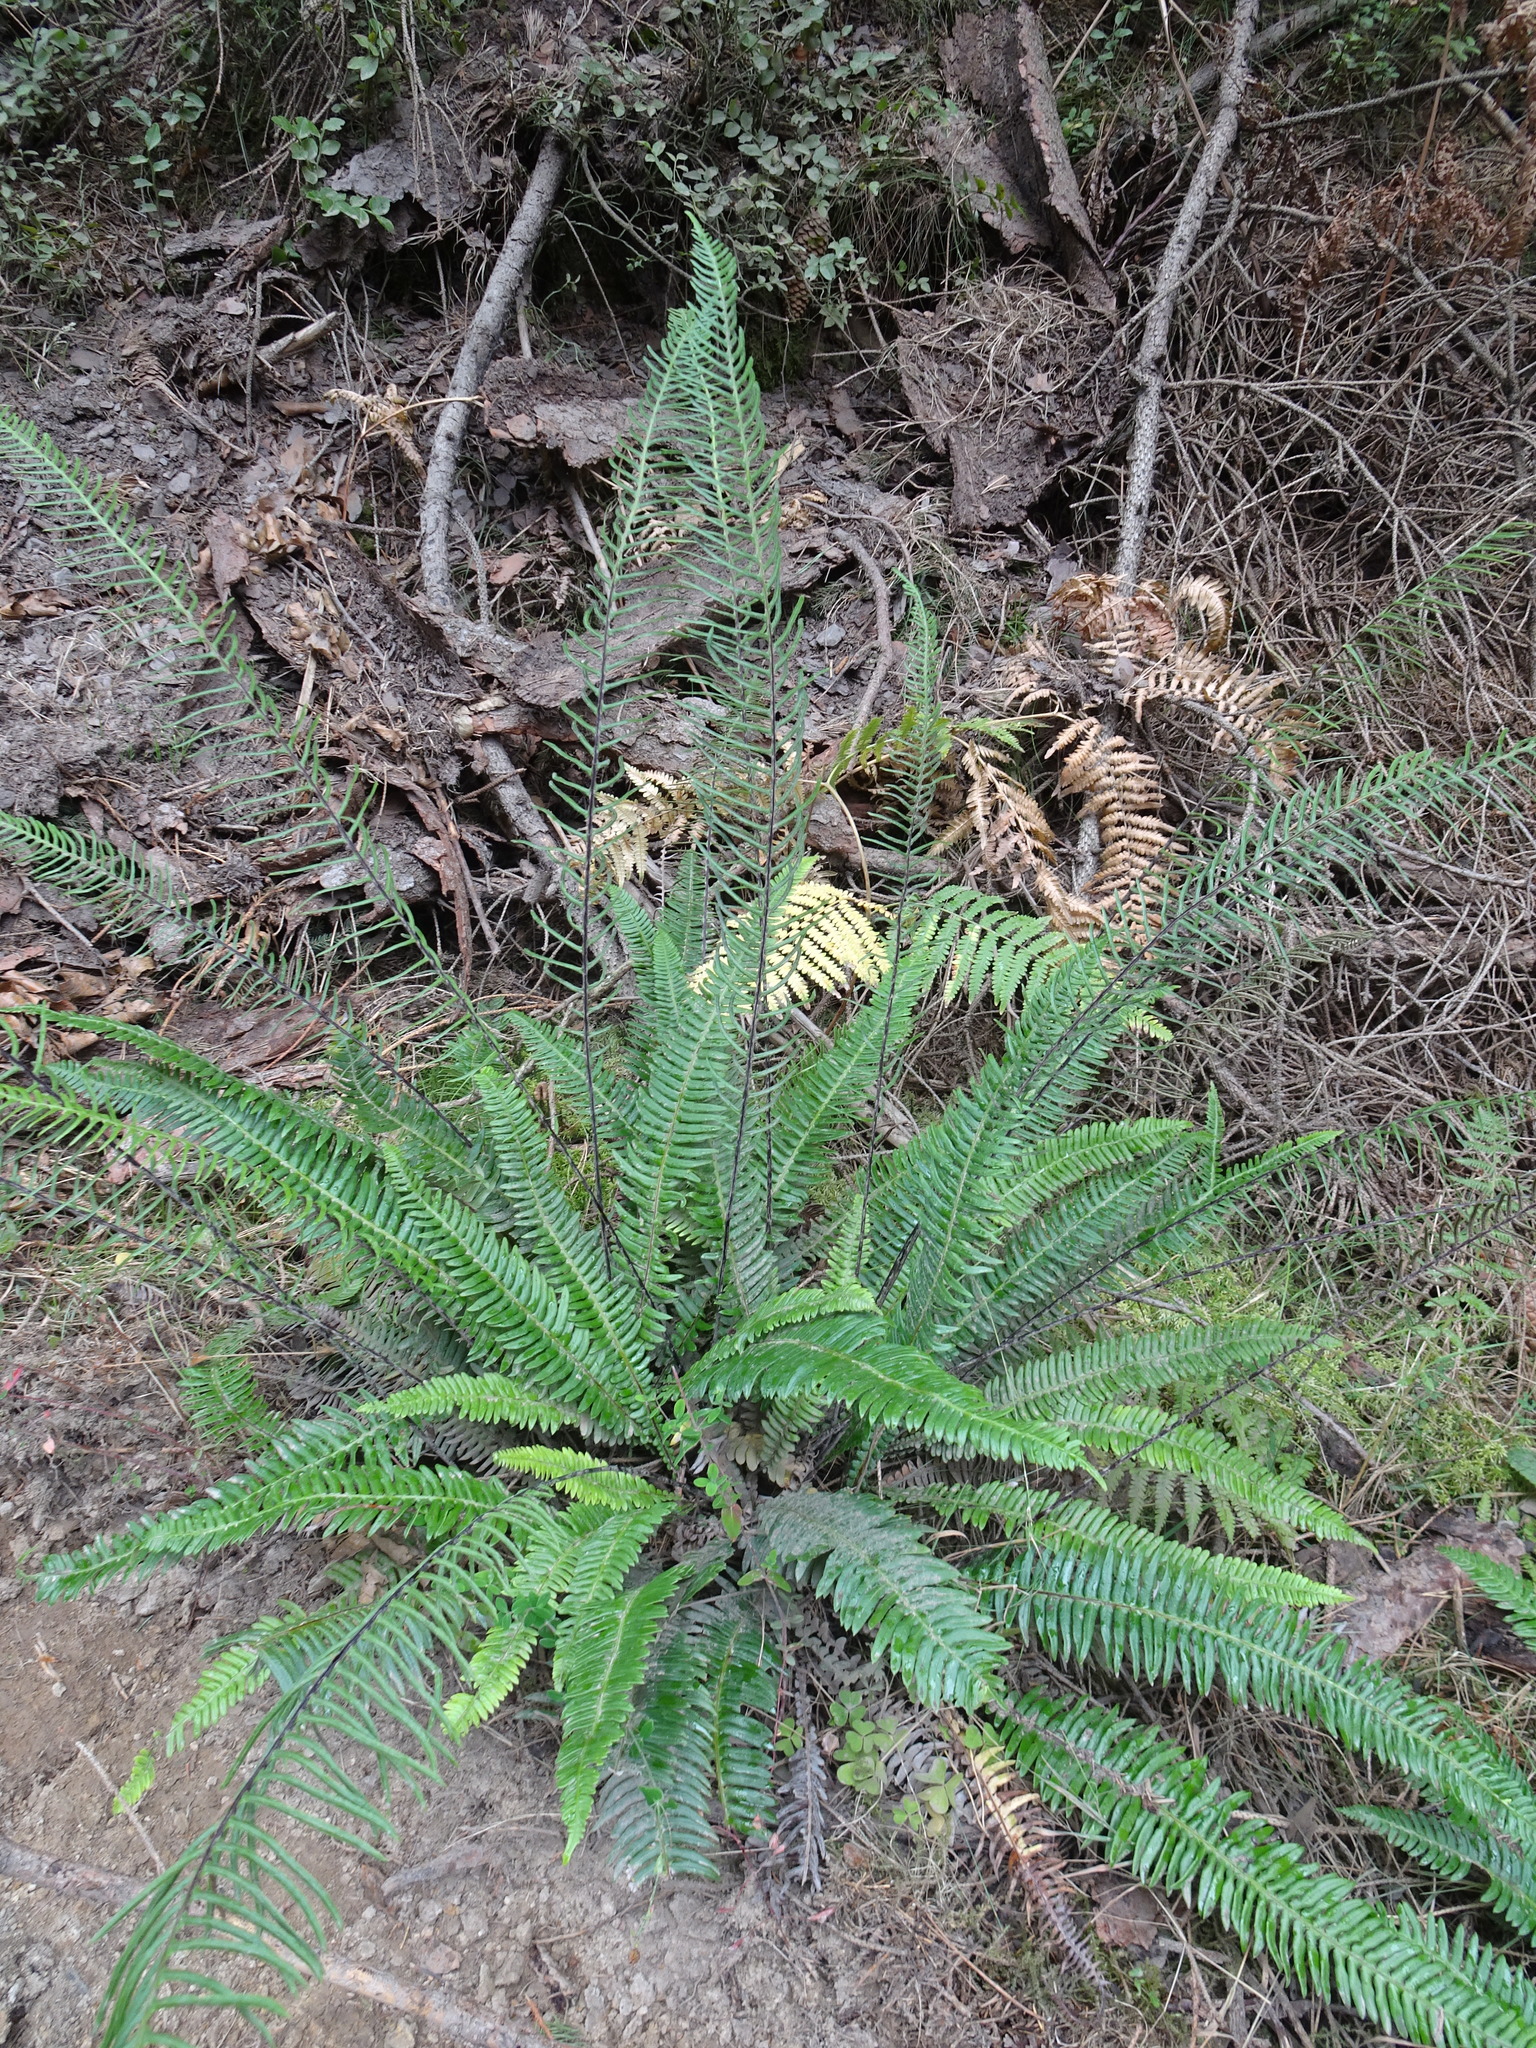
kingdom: Plantae
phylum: Tracheophyta
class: Polypodiopsida
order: Polypodiales
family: Blechnaceae
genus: Struthiopteris
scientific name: Struthiopteris spicant
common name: Deer fern
